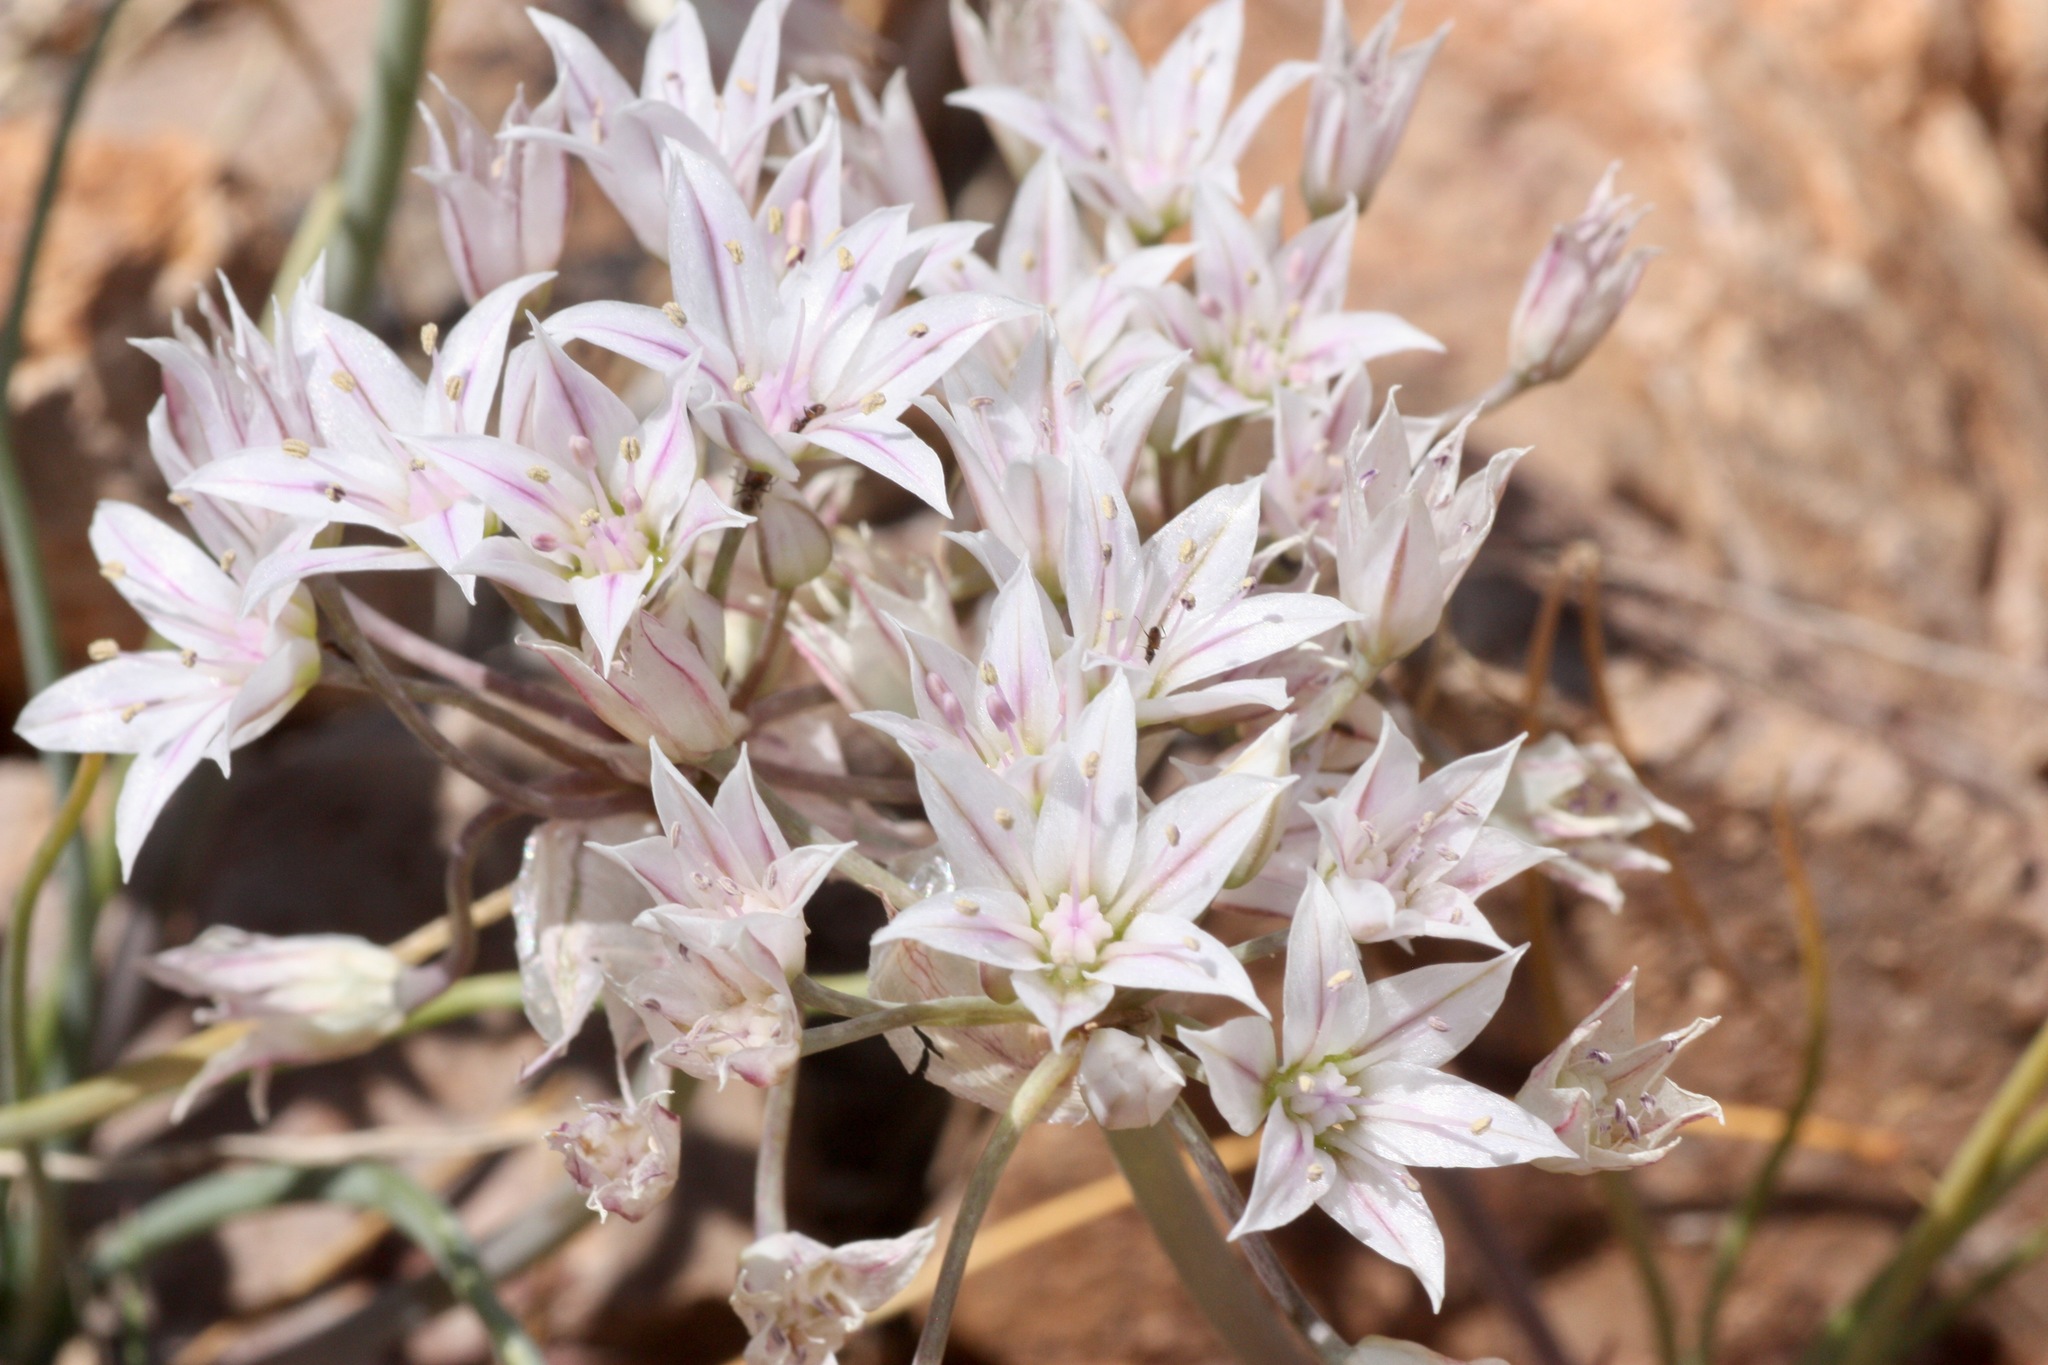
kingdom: Plantae
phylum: Tracheophyta
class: Liliopsida
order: Asparagales
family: Amaryllidaceae
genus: Allium
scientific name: Allium macropetalum
